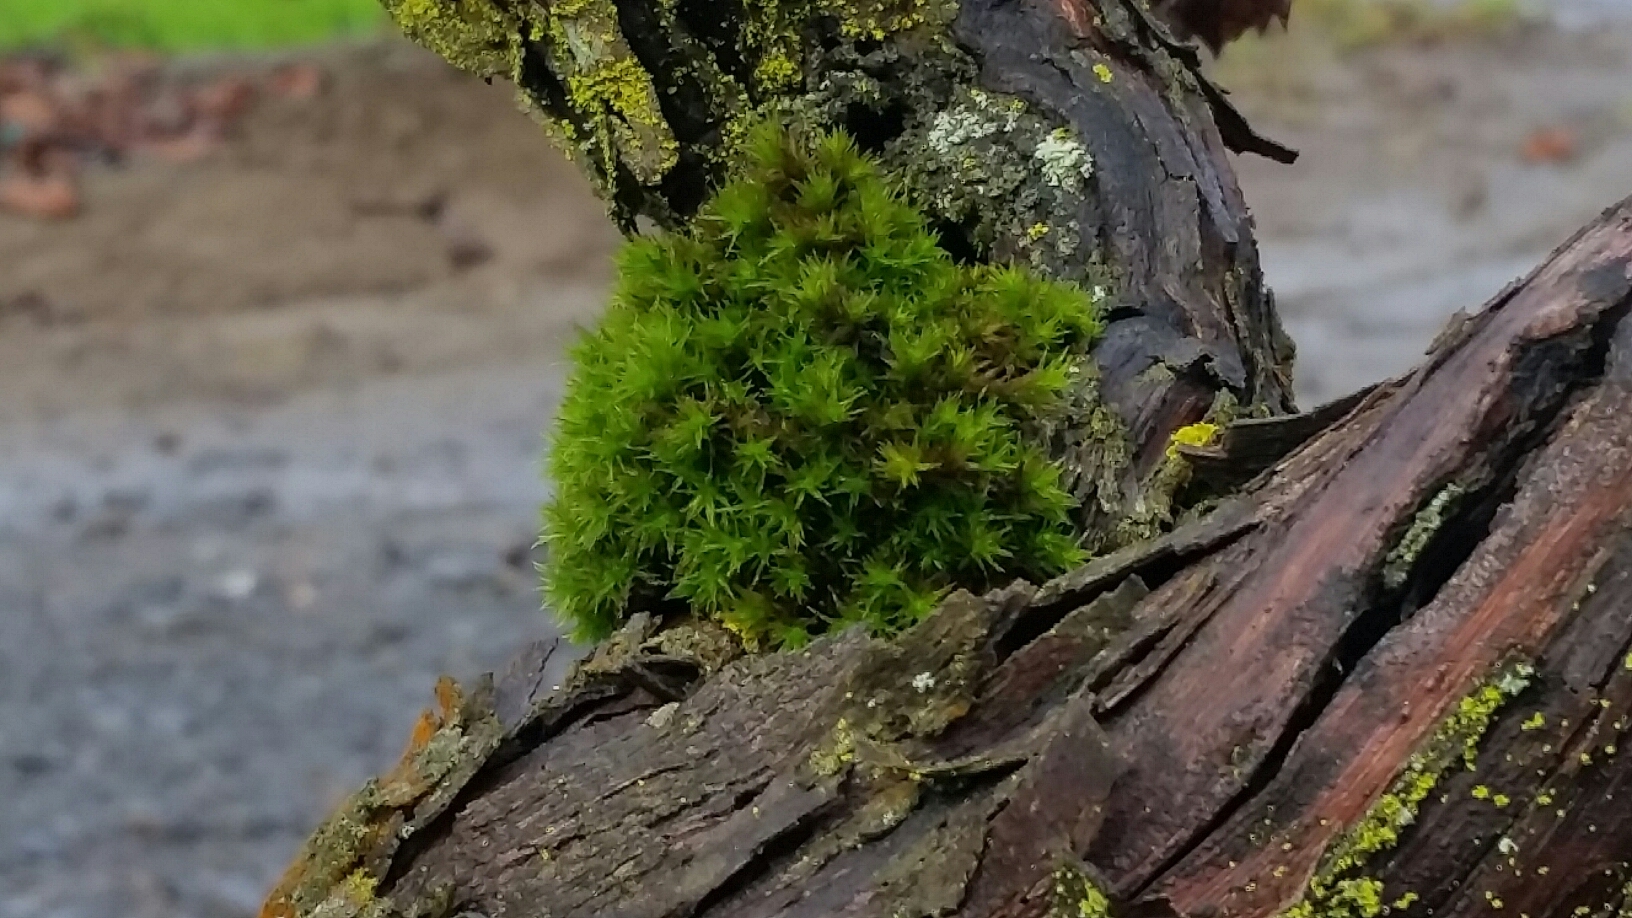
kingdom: Plantae
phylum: Bryophyta
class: Bryopsida
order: Orthotrichales
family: Orthotrichaceae
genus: Lewinskya
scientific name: Lewinskya affinis
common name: Wood bristle-moss
